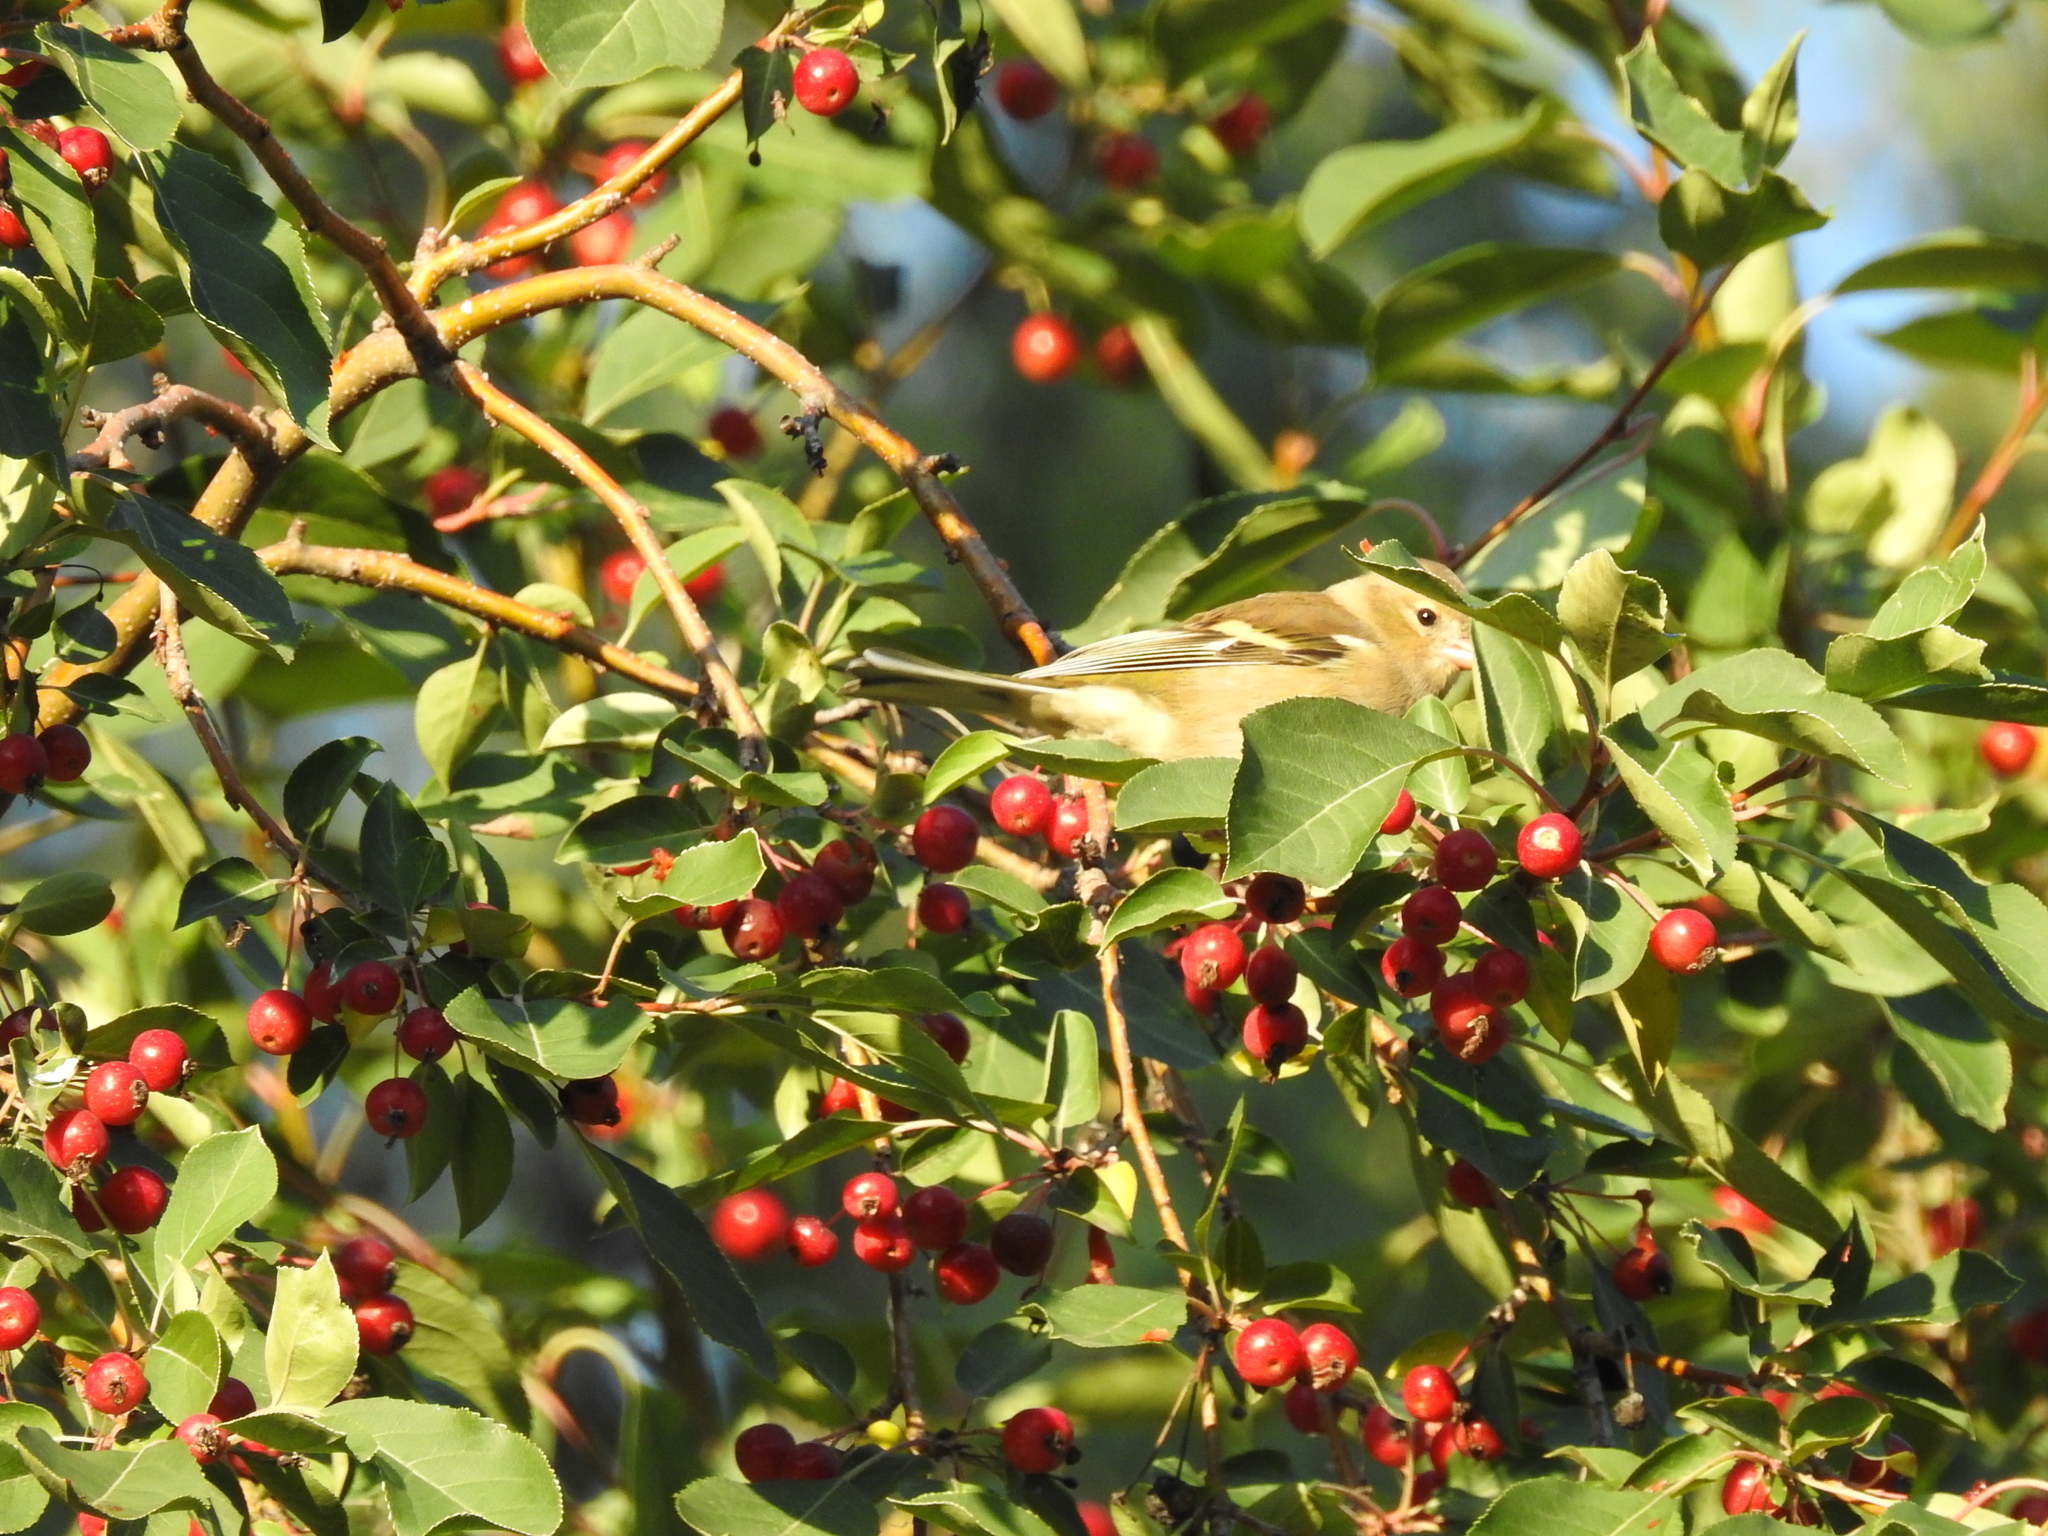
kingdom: Animalia
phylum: Chordata
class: Aves
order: Passeriformes
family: Fringillidae
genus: Fringilla
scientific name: Fringilla coelebs
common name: Common chaffinch
